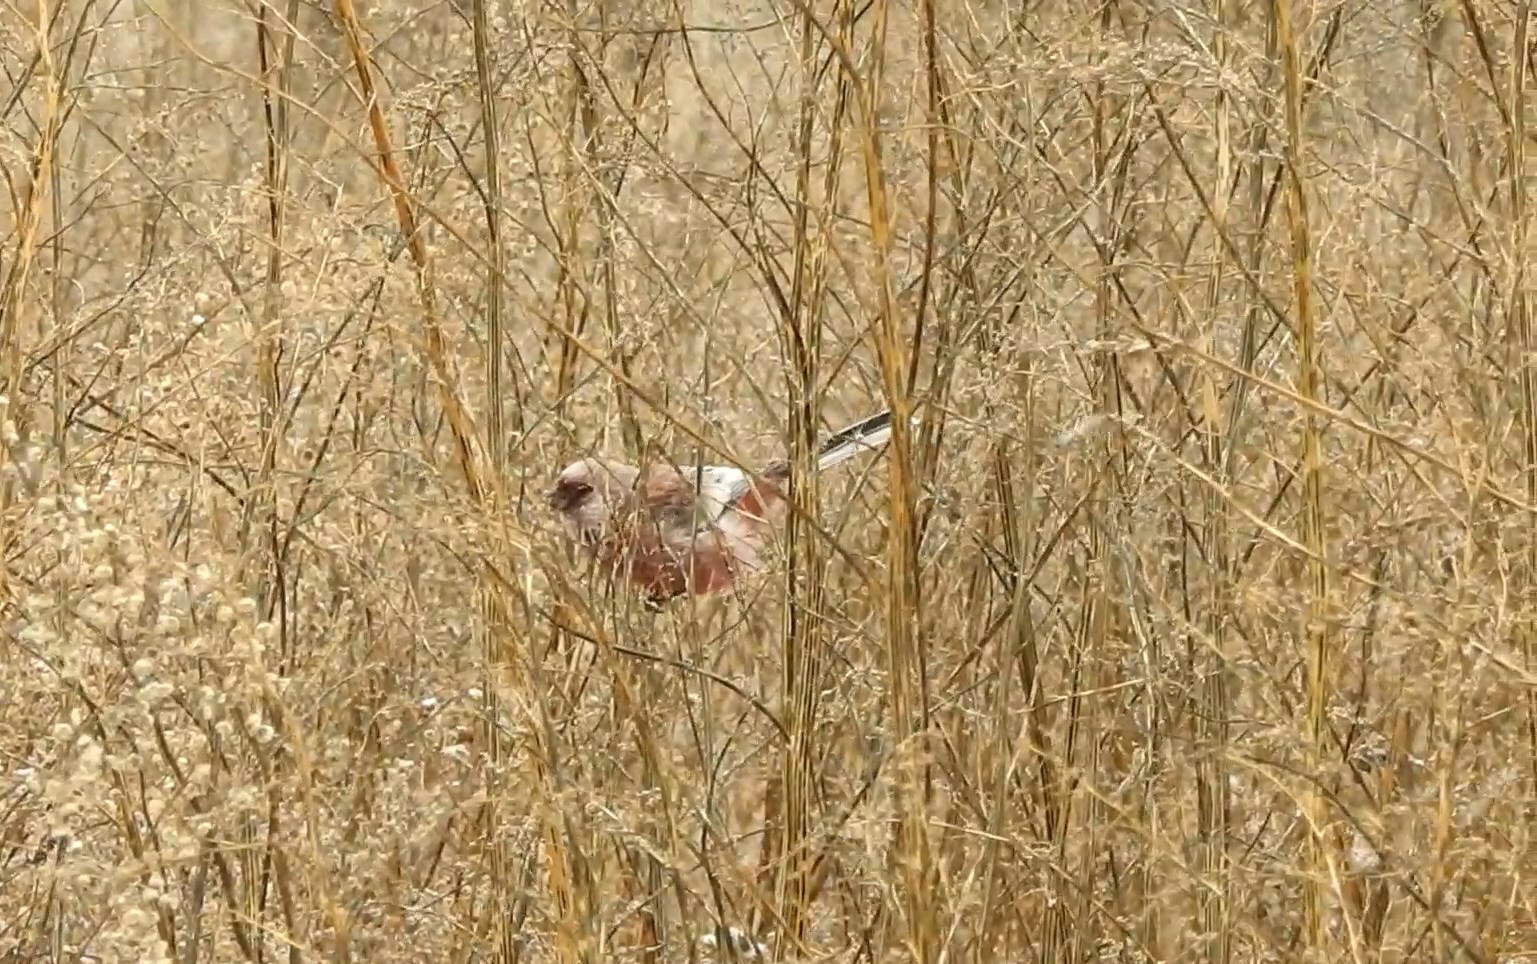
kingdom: Animalia
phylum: Chordata
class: Aves
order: Passeriformes
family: Fringillidae
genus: Carpodacus
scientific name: Carpodacus sibiricus
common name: Long-tailed rosefinch
